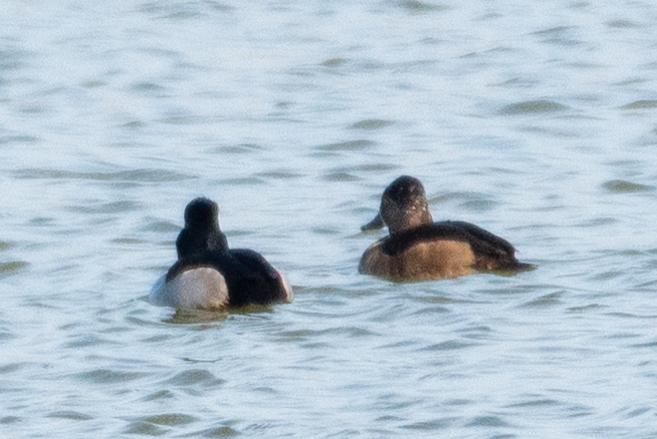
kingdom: Animalia
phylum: Chordata
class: Aves
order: Anseriformes
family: Anatidae
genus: Aythya
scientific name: Aythya collaris
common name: Ring-necked duck
